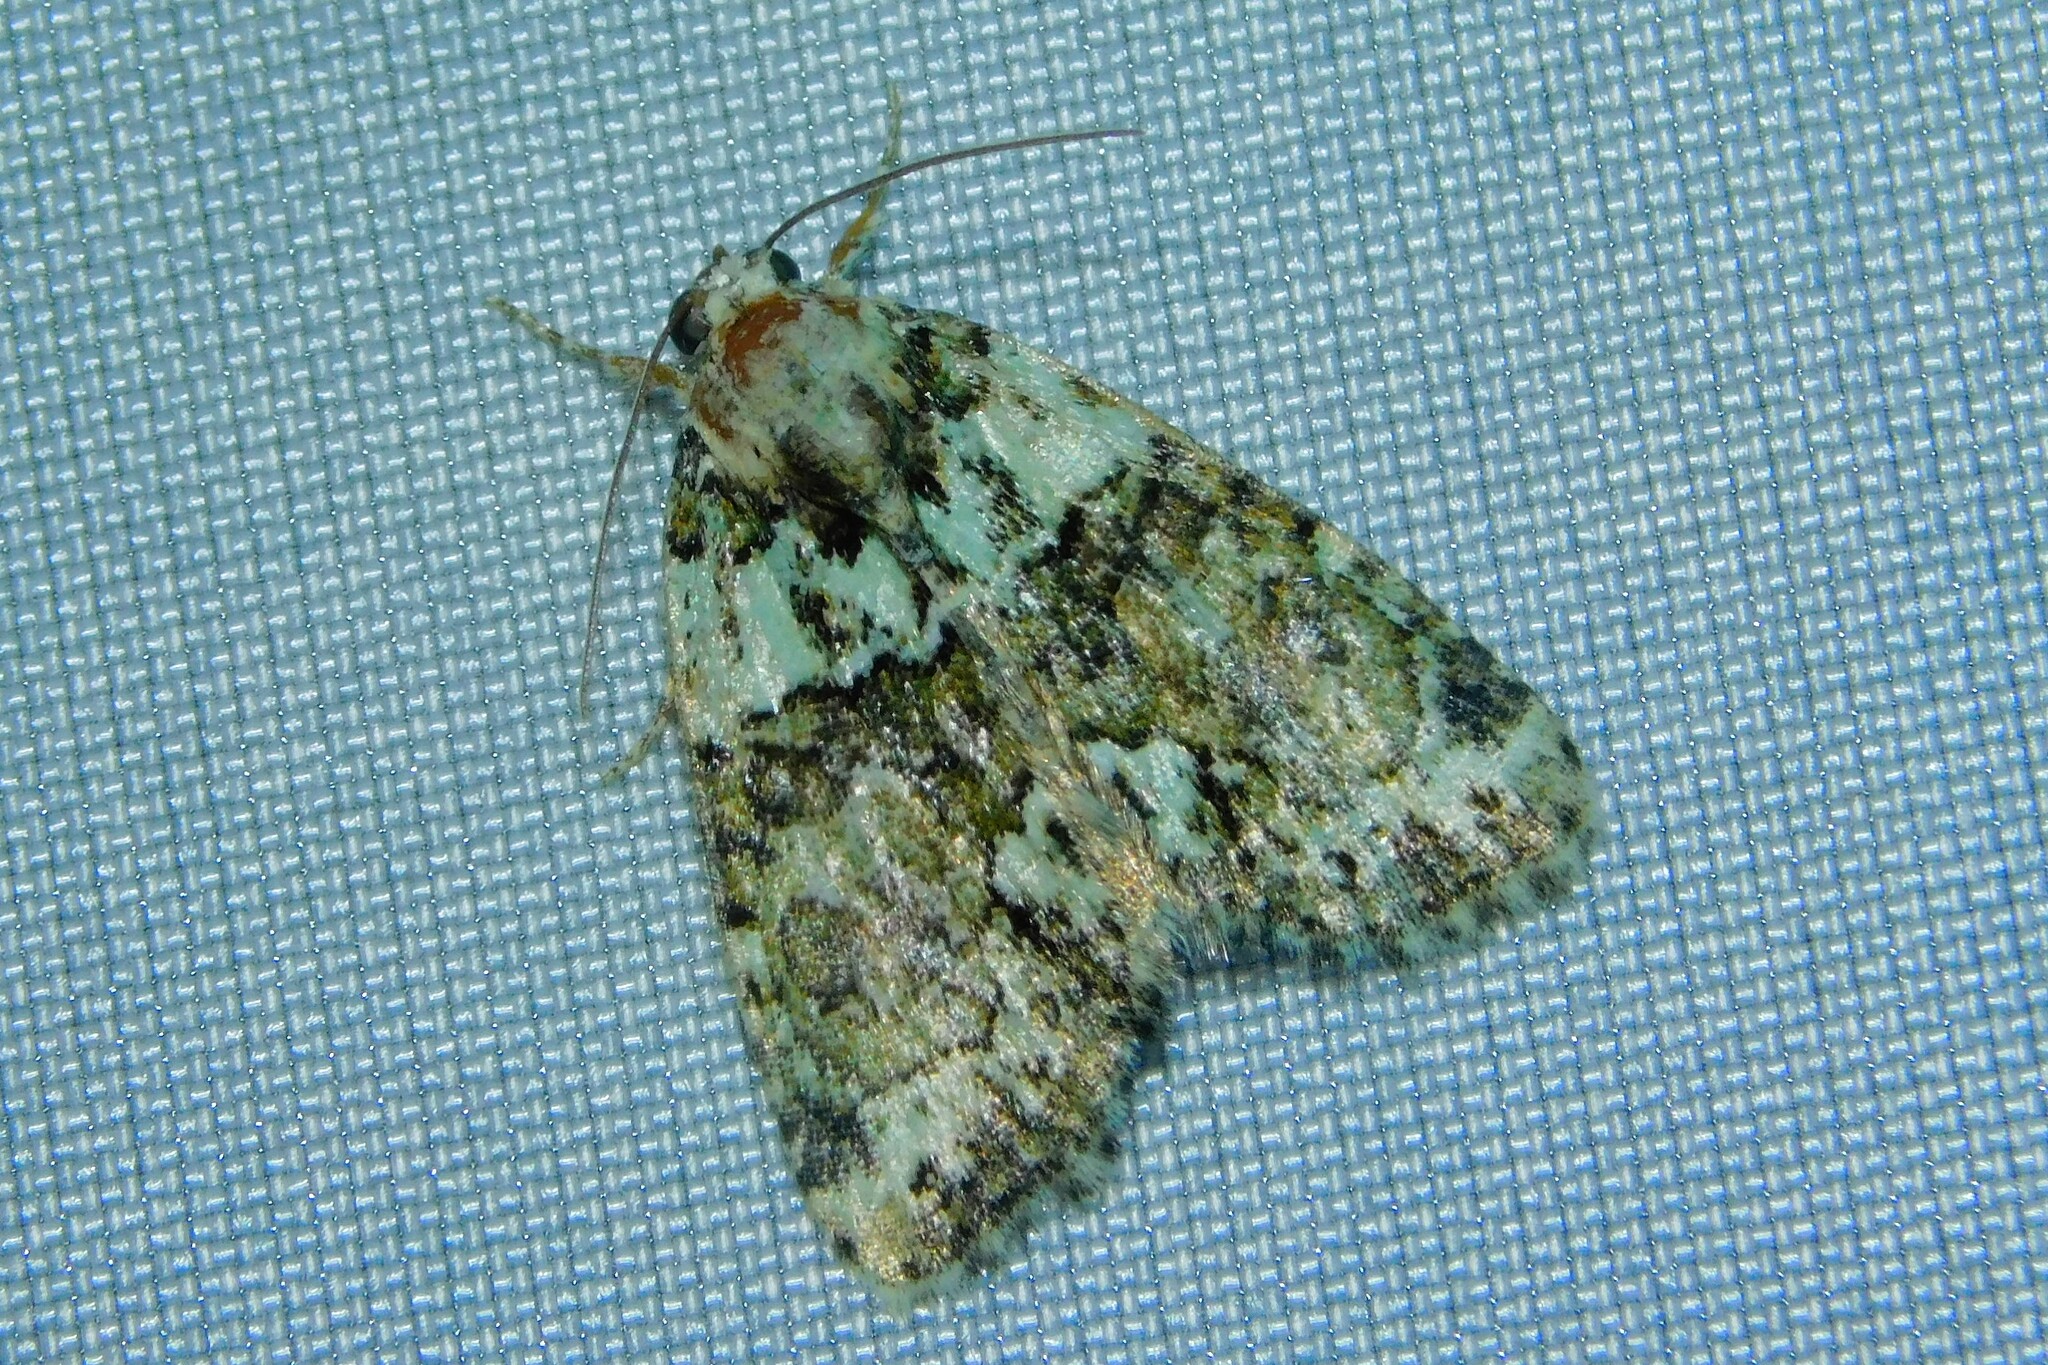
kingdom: Animalia
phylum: Arthropoda
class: Insecta
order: Lepidoptera
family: Noctuidae
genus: Cryphia
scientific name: Cryphia algae
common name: Tree-lichen beauty
